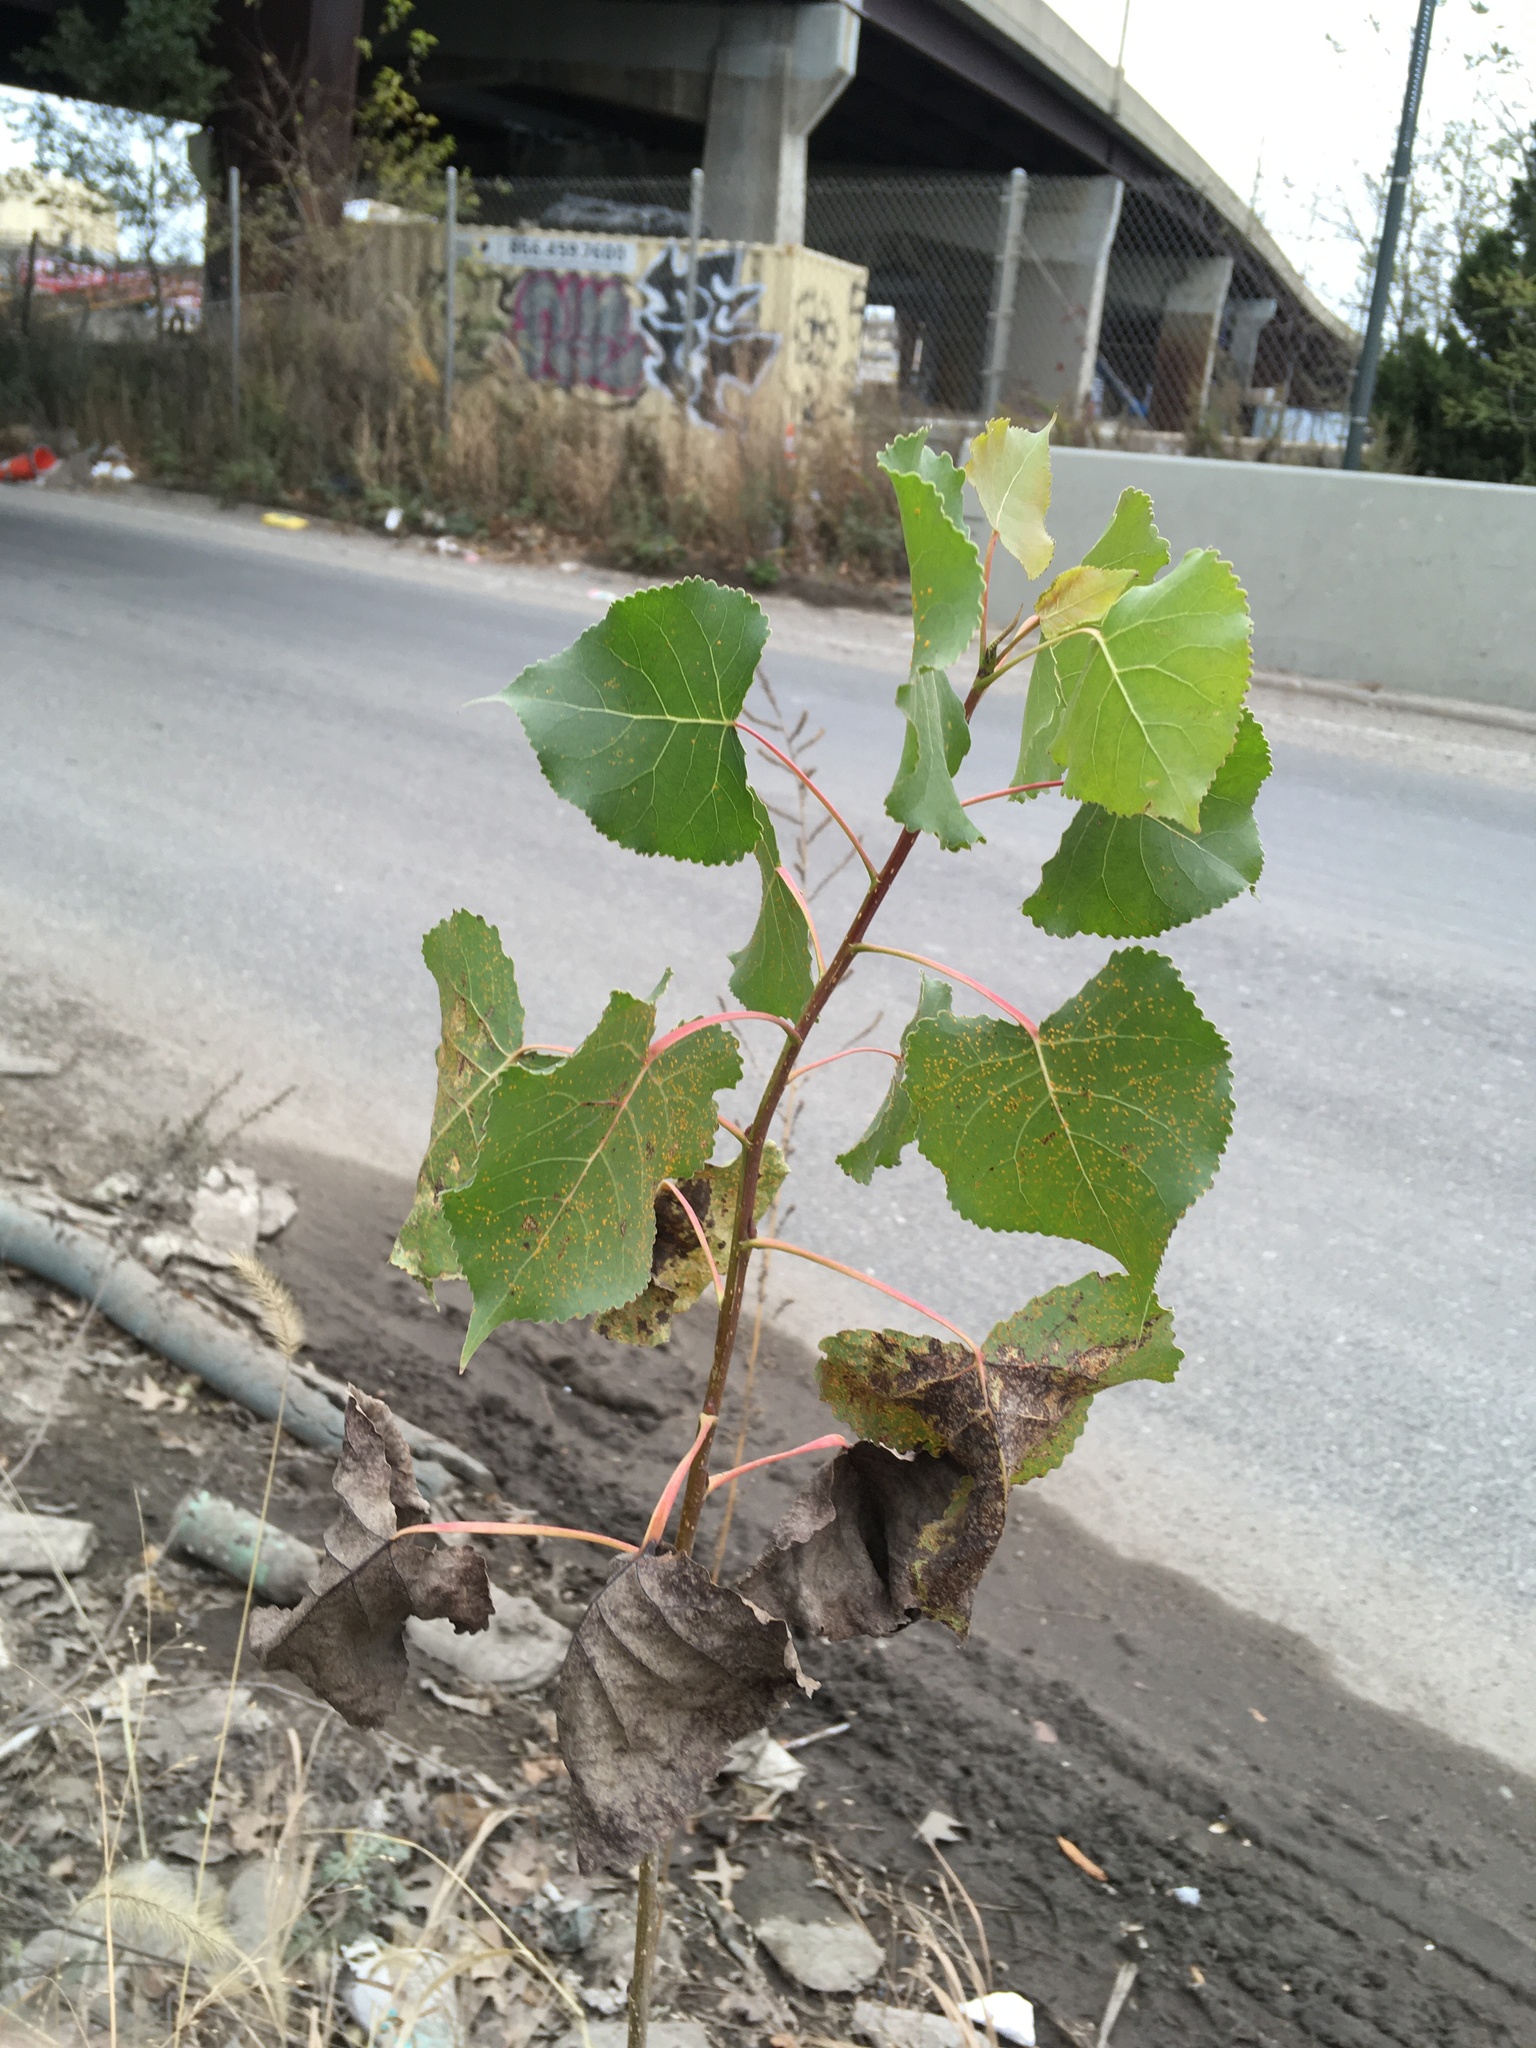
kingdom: Plantae
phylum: Tracheophyta
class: Magnoliopsida
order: Malpighiales
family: Salicaceae
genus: Populus
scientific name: Populus deltoides
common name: Eastern cottonwood
